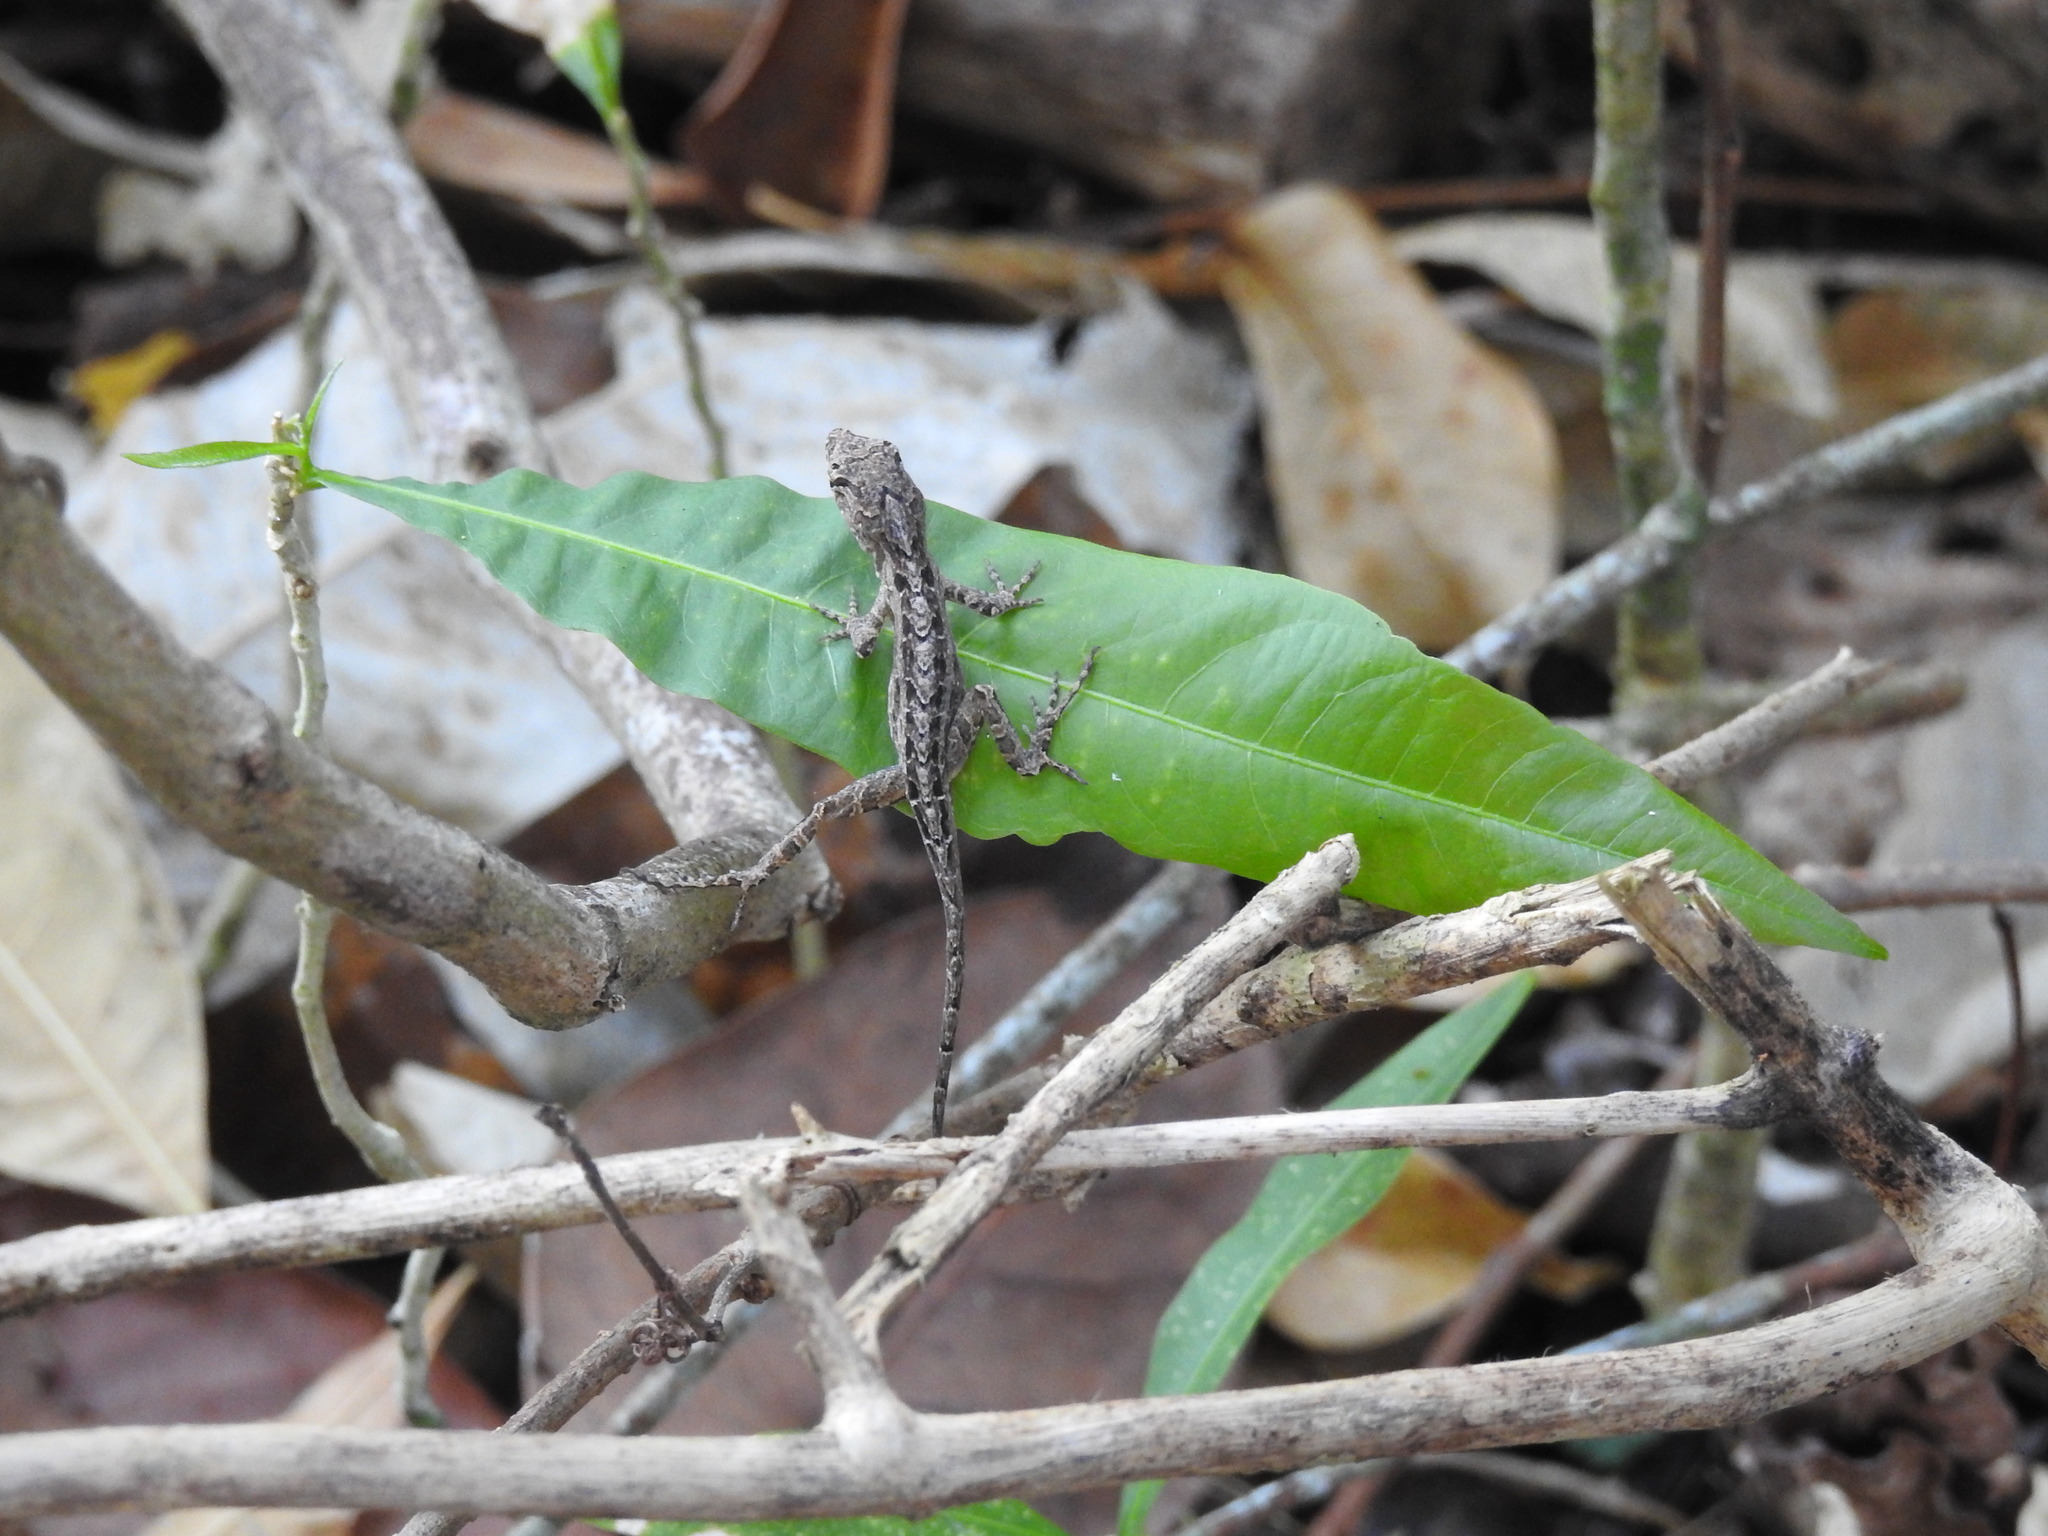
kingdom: Animalia
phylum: Chordata
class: Squamata
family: Dactyloidae
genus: Anolis
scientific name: Anolis sagrei
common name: Brown anole
